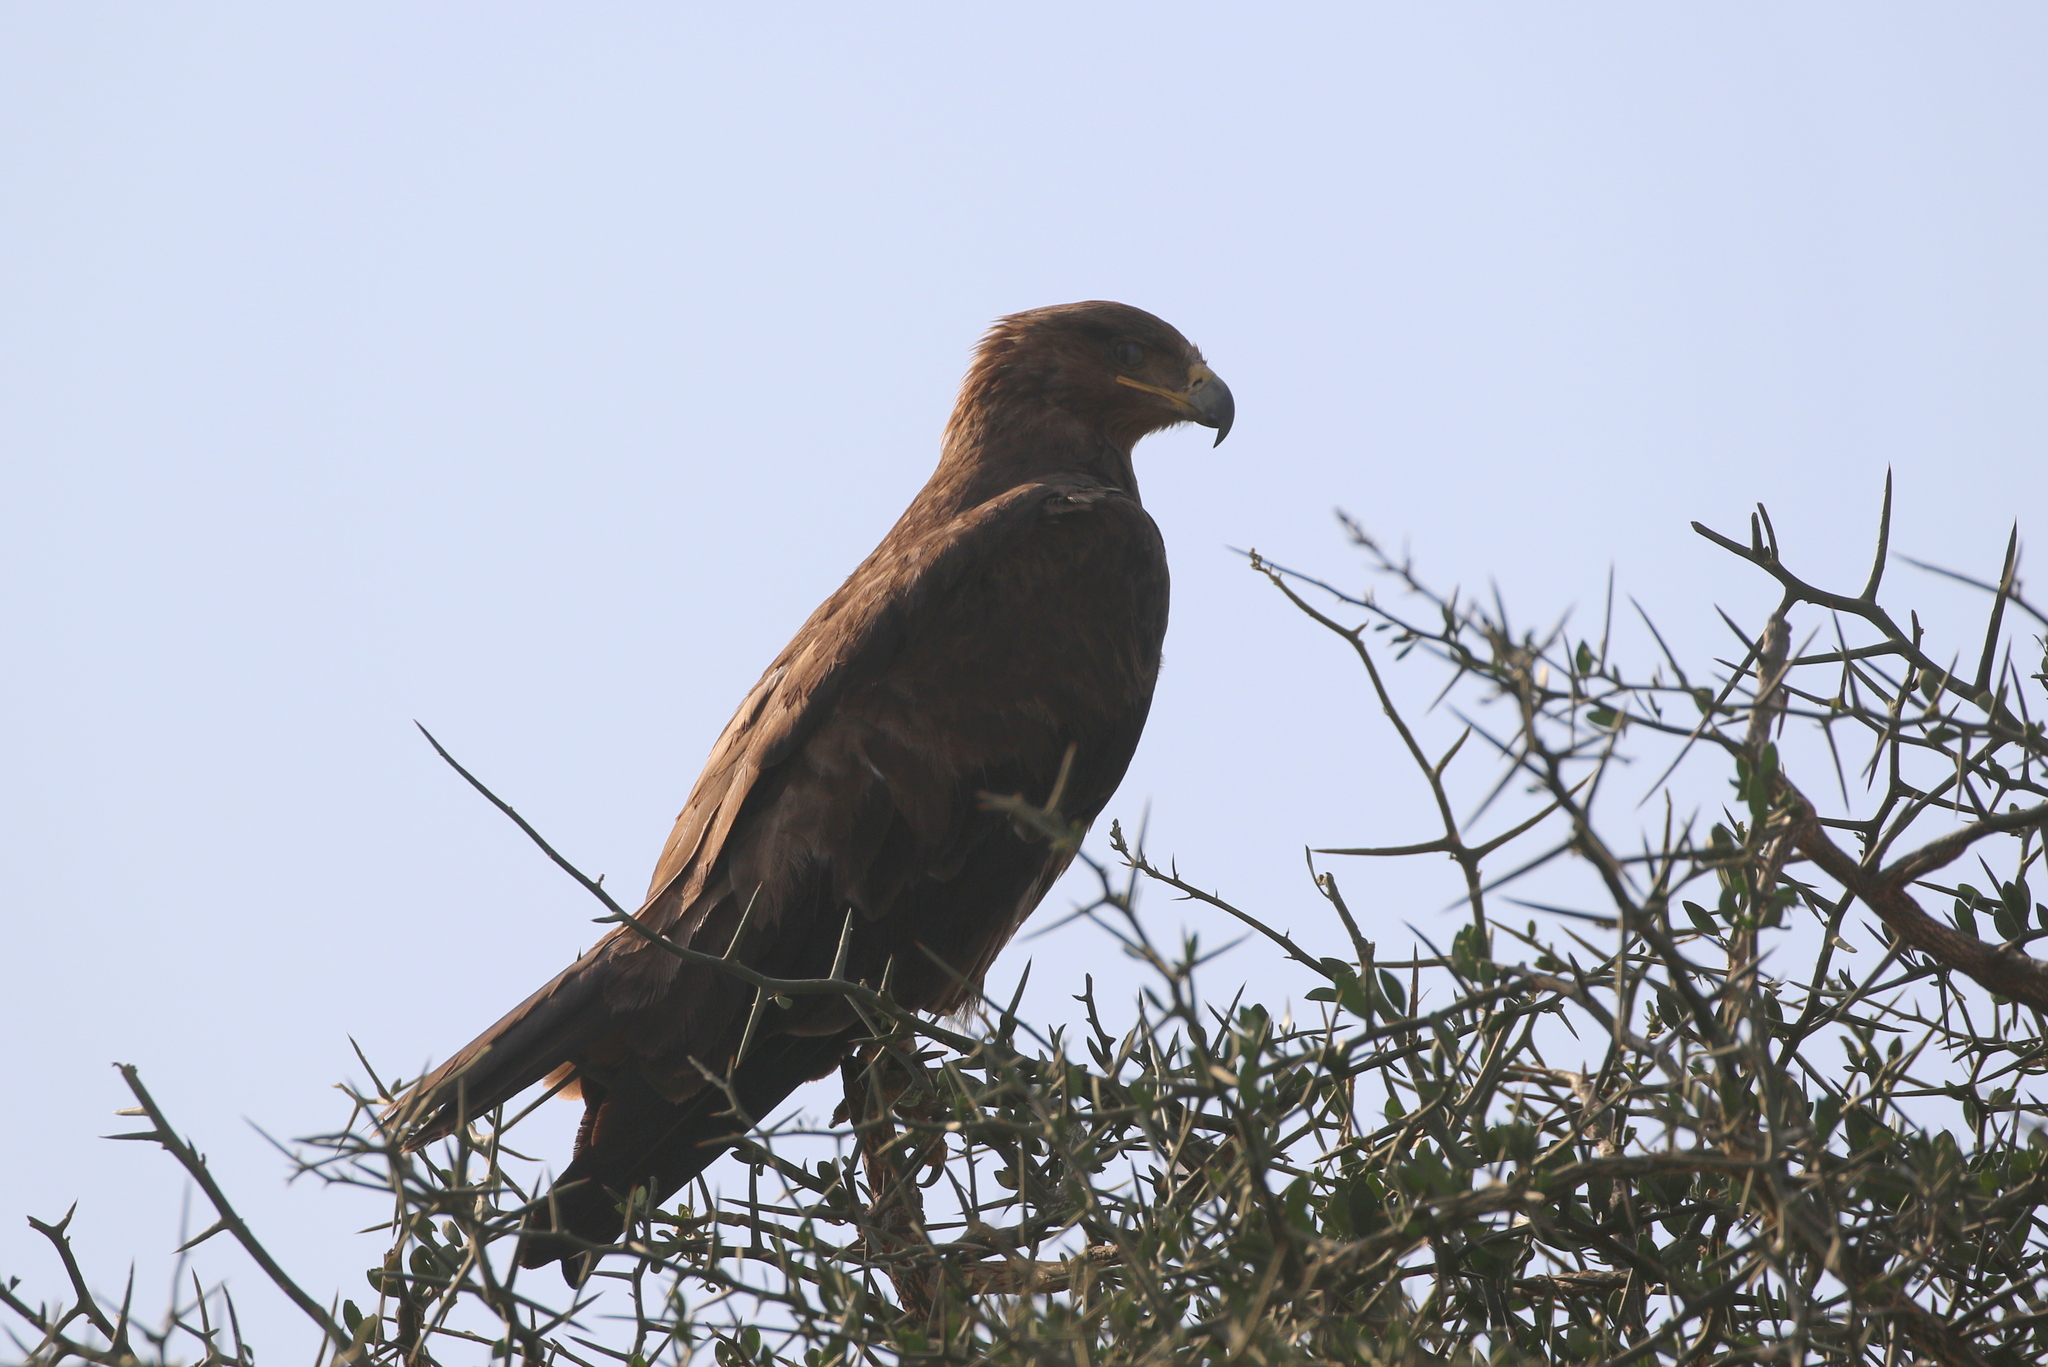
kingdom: Animalia
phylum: Chordata
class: Aves
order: Accipitriformes
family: Accipitridae
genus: Aquila
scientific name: Aquila rapax
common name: Tawny eagle
